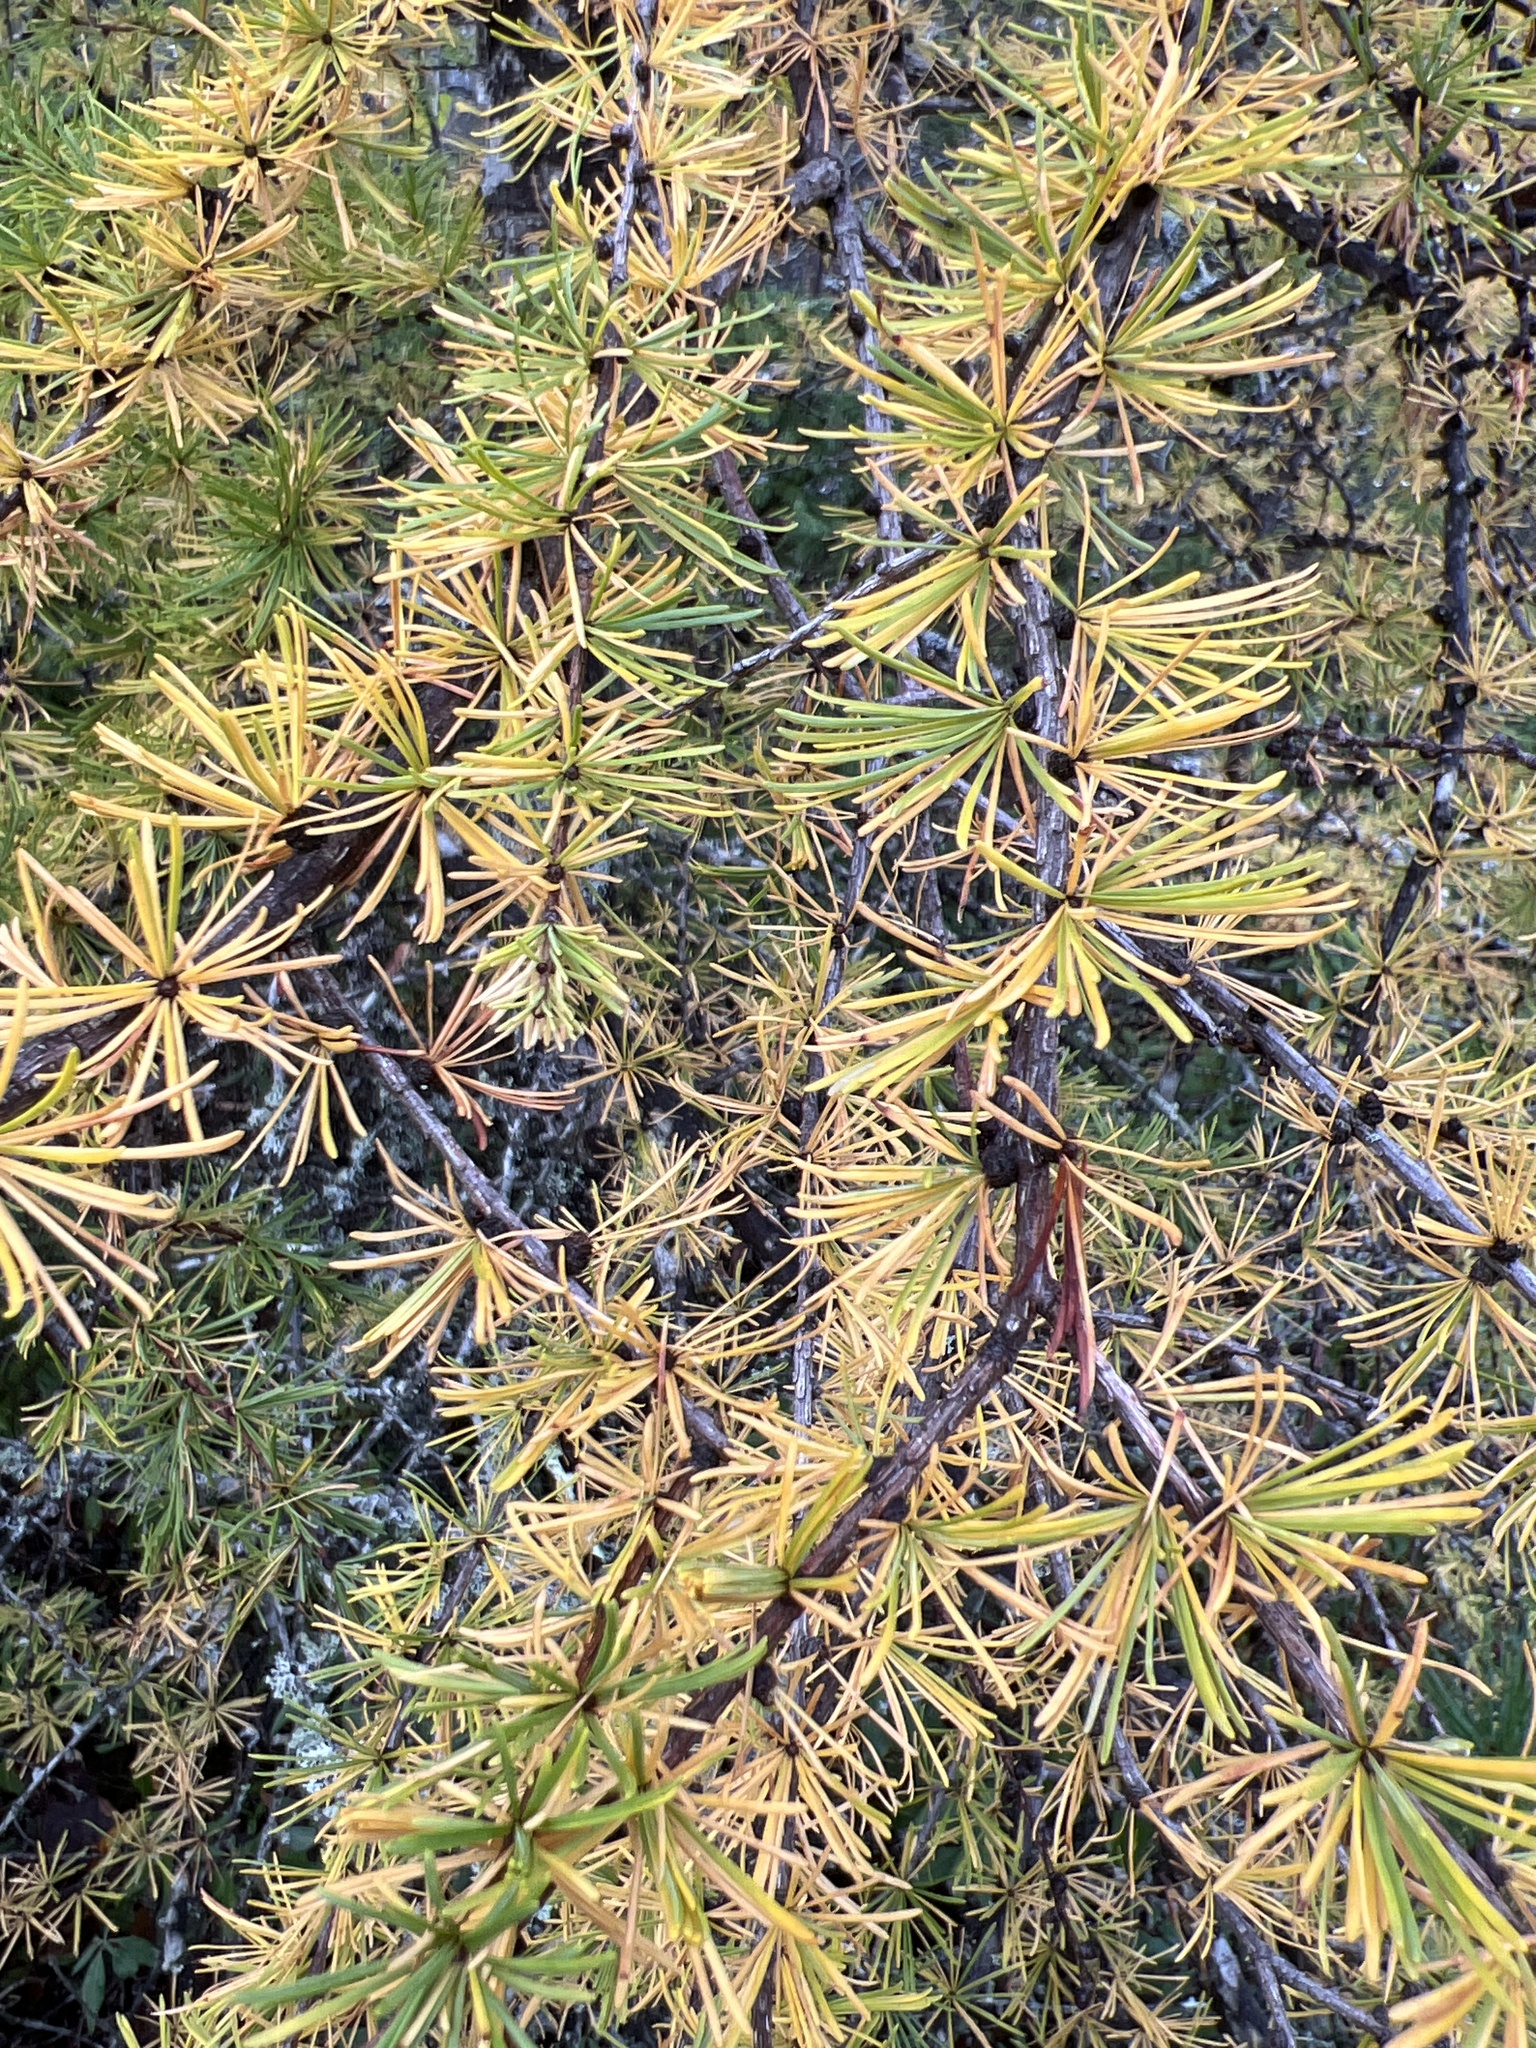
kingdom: Plantae
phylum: Tracheophyta
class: Pinopsida
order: Pinales
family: Pinaceae
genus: Larix
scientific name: Larix laricina
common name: American larch
